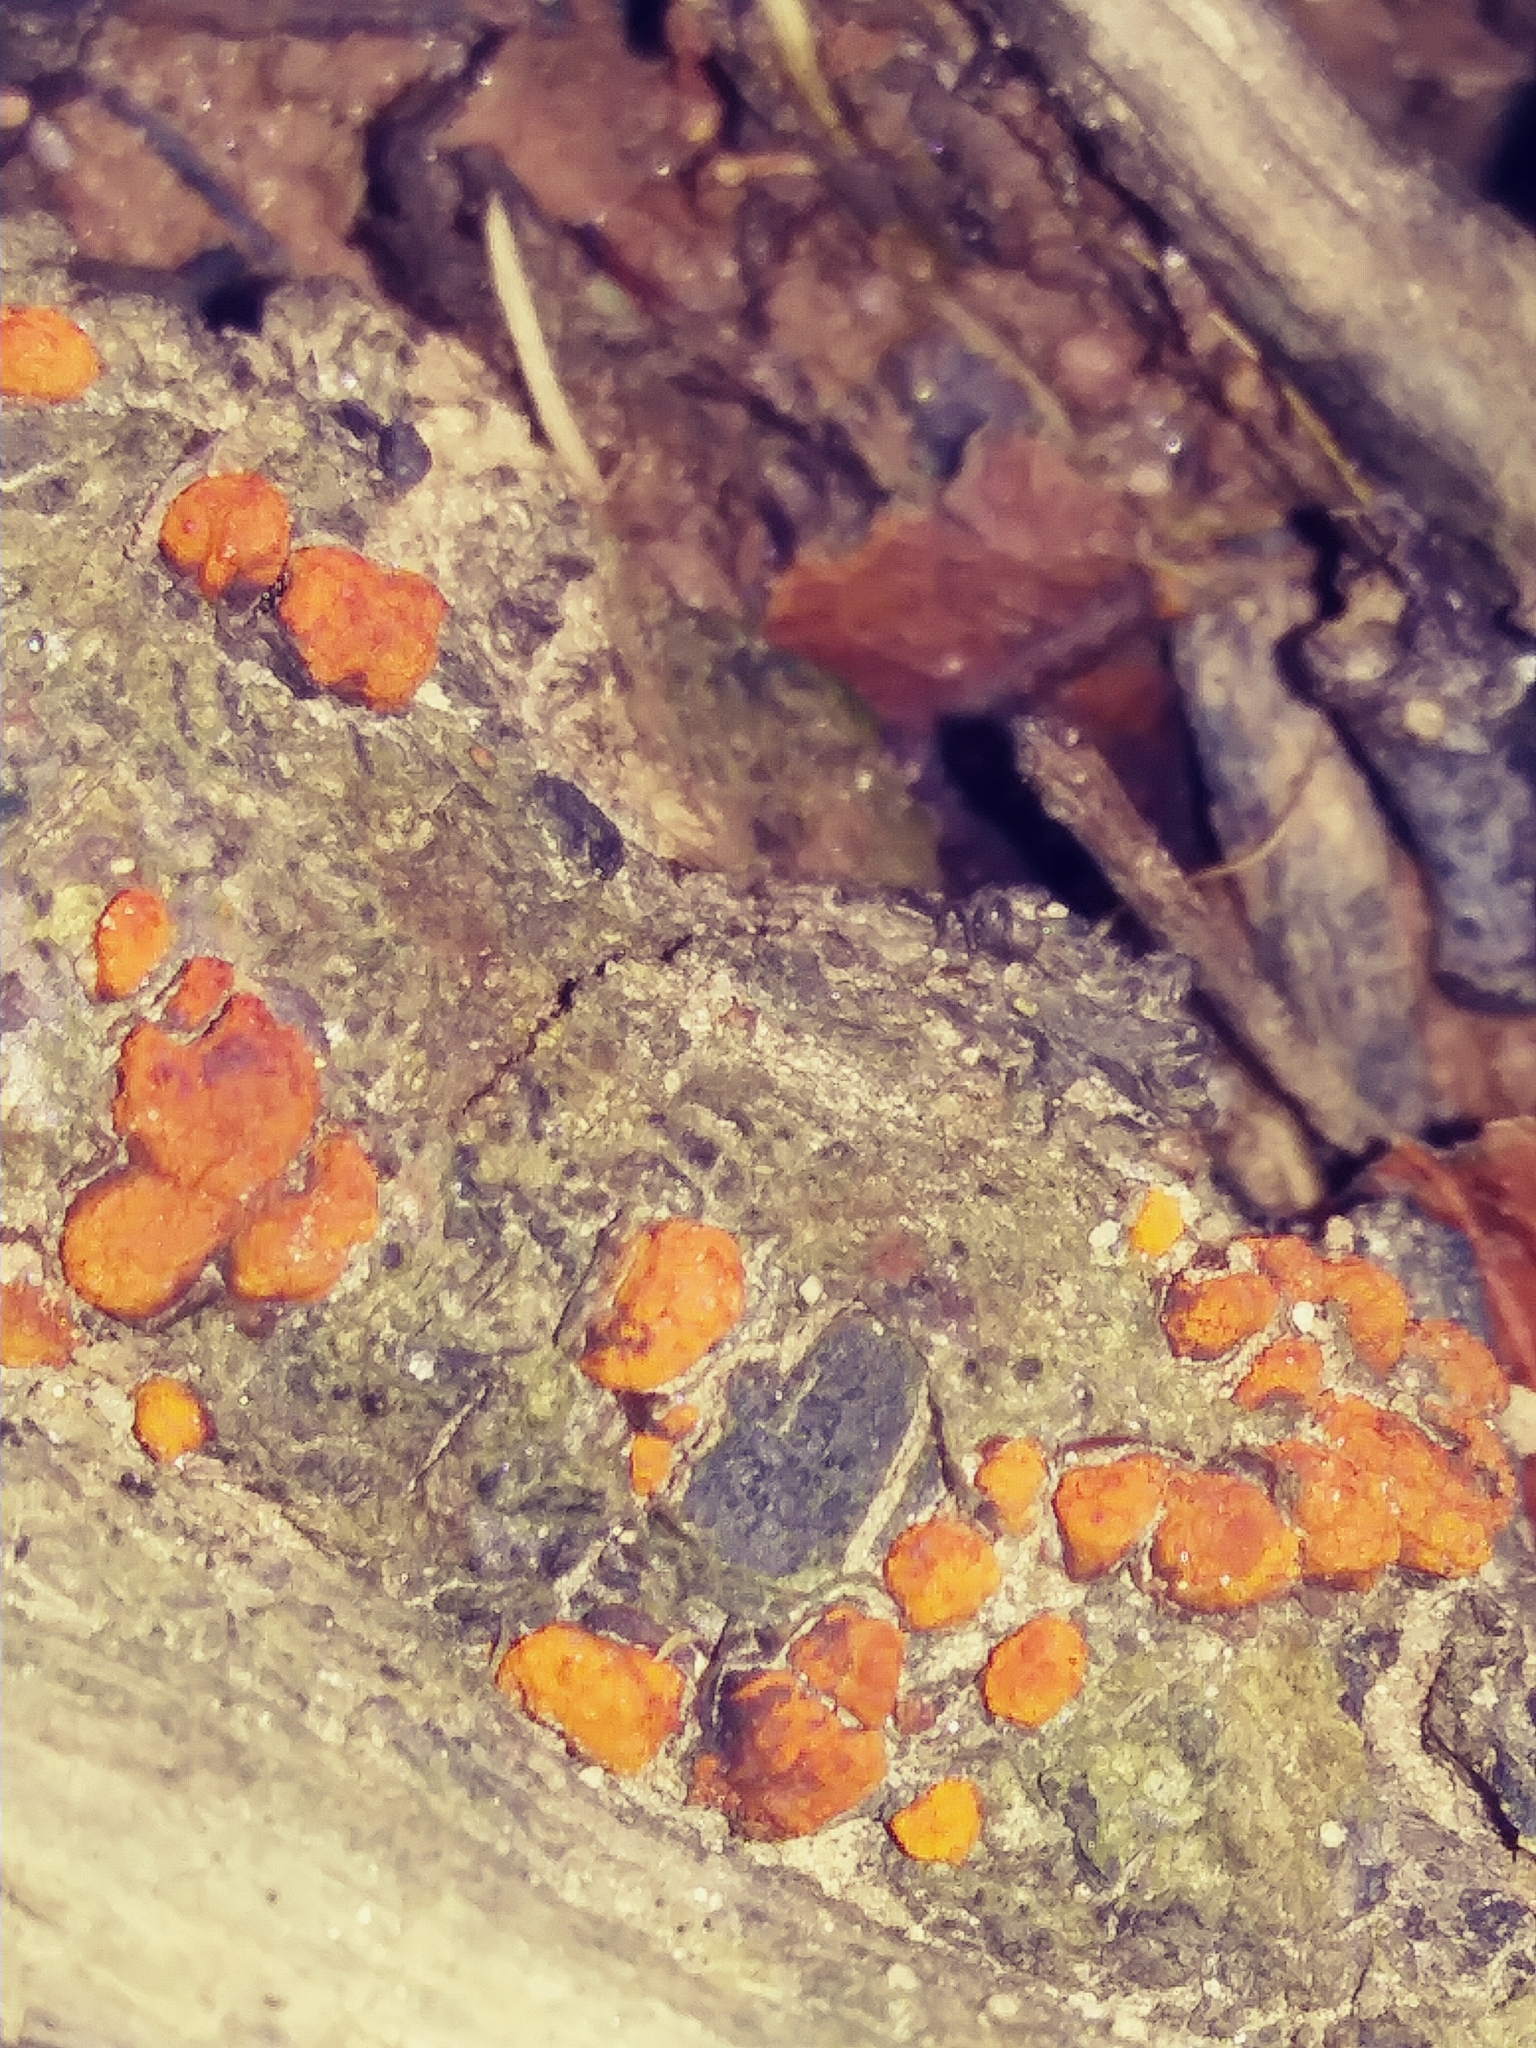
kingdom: Fungi
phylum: Ascomycota
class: Sordariomycetes
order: Diaporthales
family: Cryphonectriaceae
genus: Amphilogia
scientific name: Amphilogia gyrosa
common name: Orange hobnail canker
